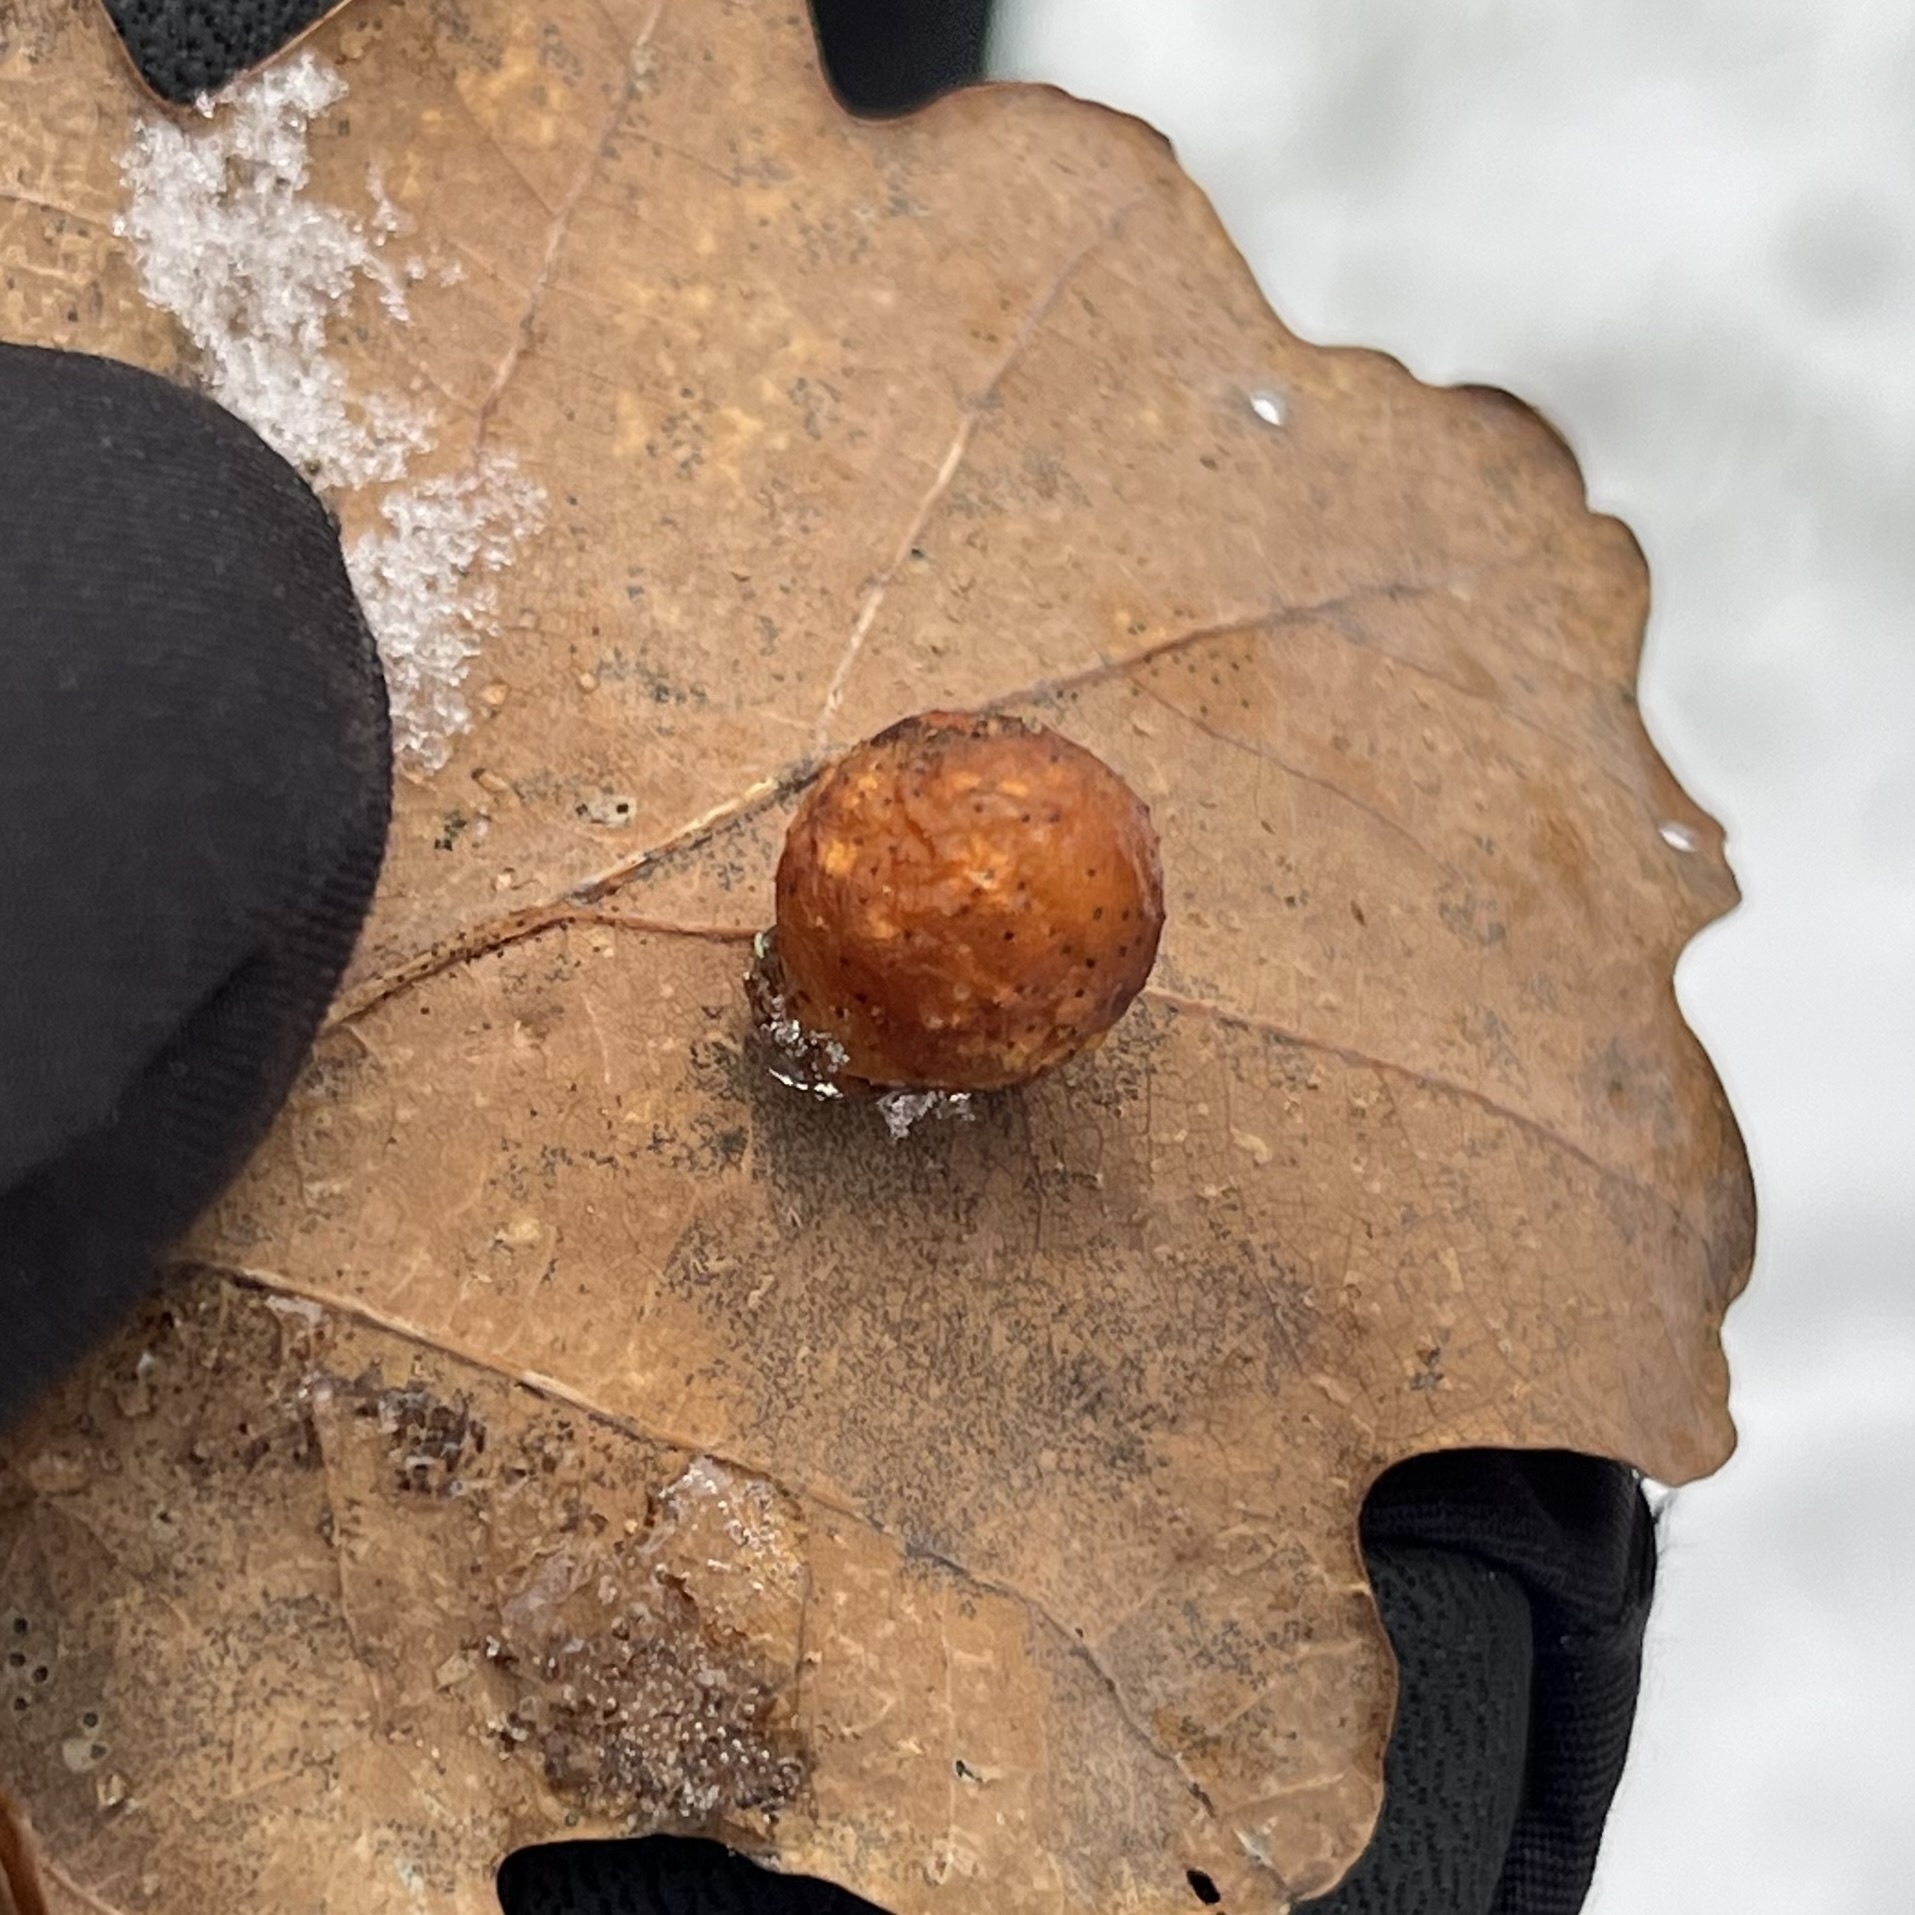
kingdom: Animalia
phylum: Arthropoda
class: Insecta
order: Hymenoptera
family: Cynipidae
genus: Cynips
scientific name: Cynips quercusfolii
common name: Cherry gall
